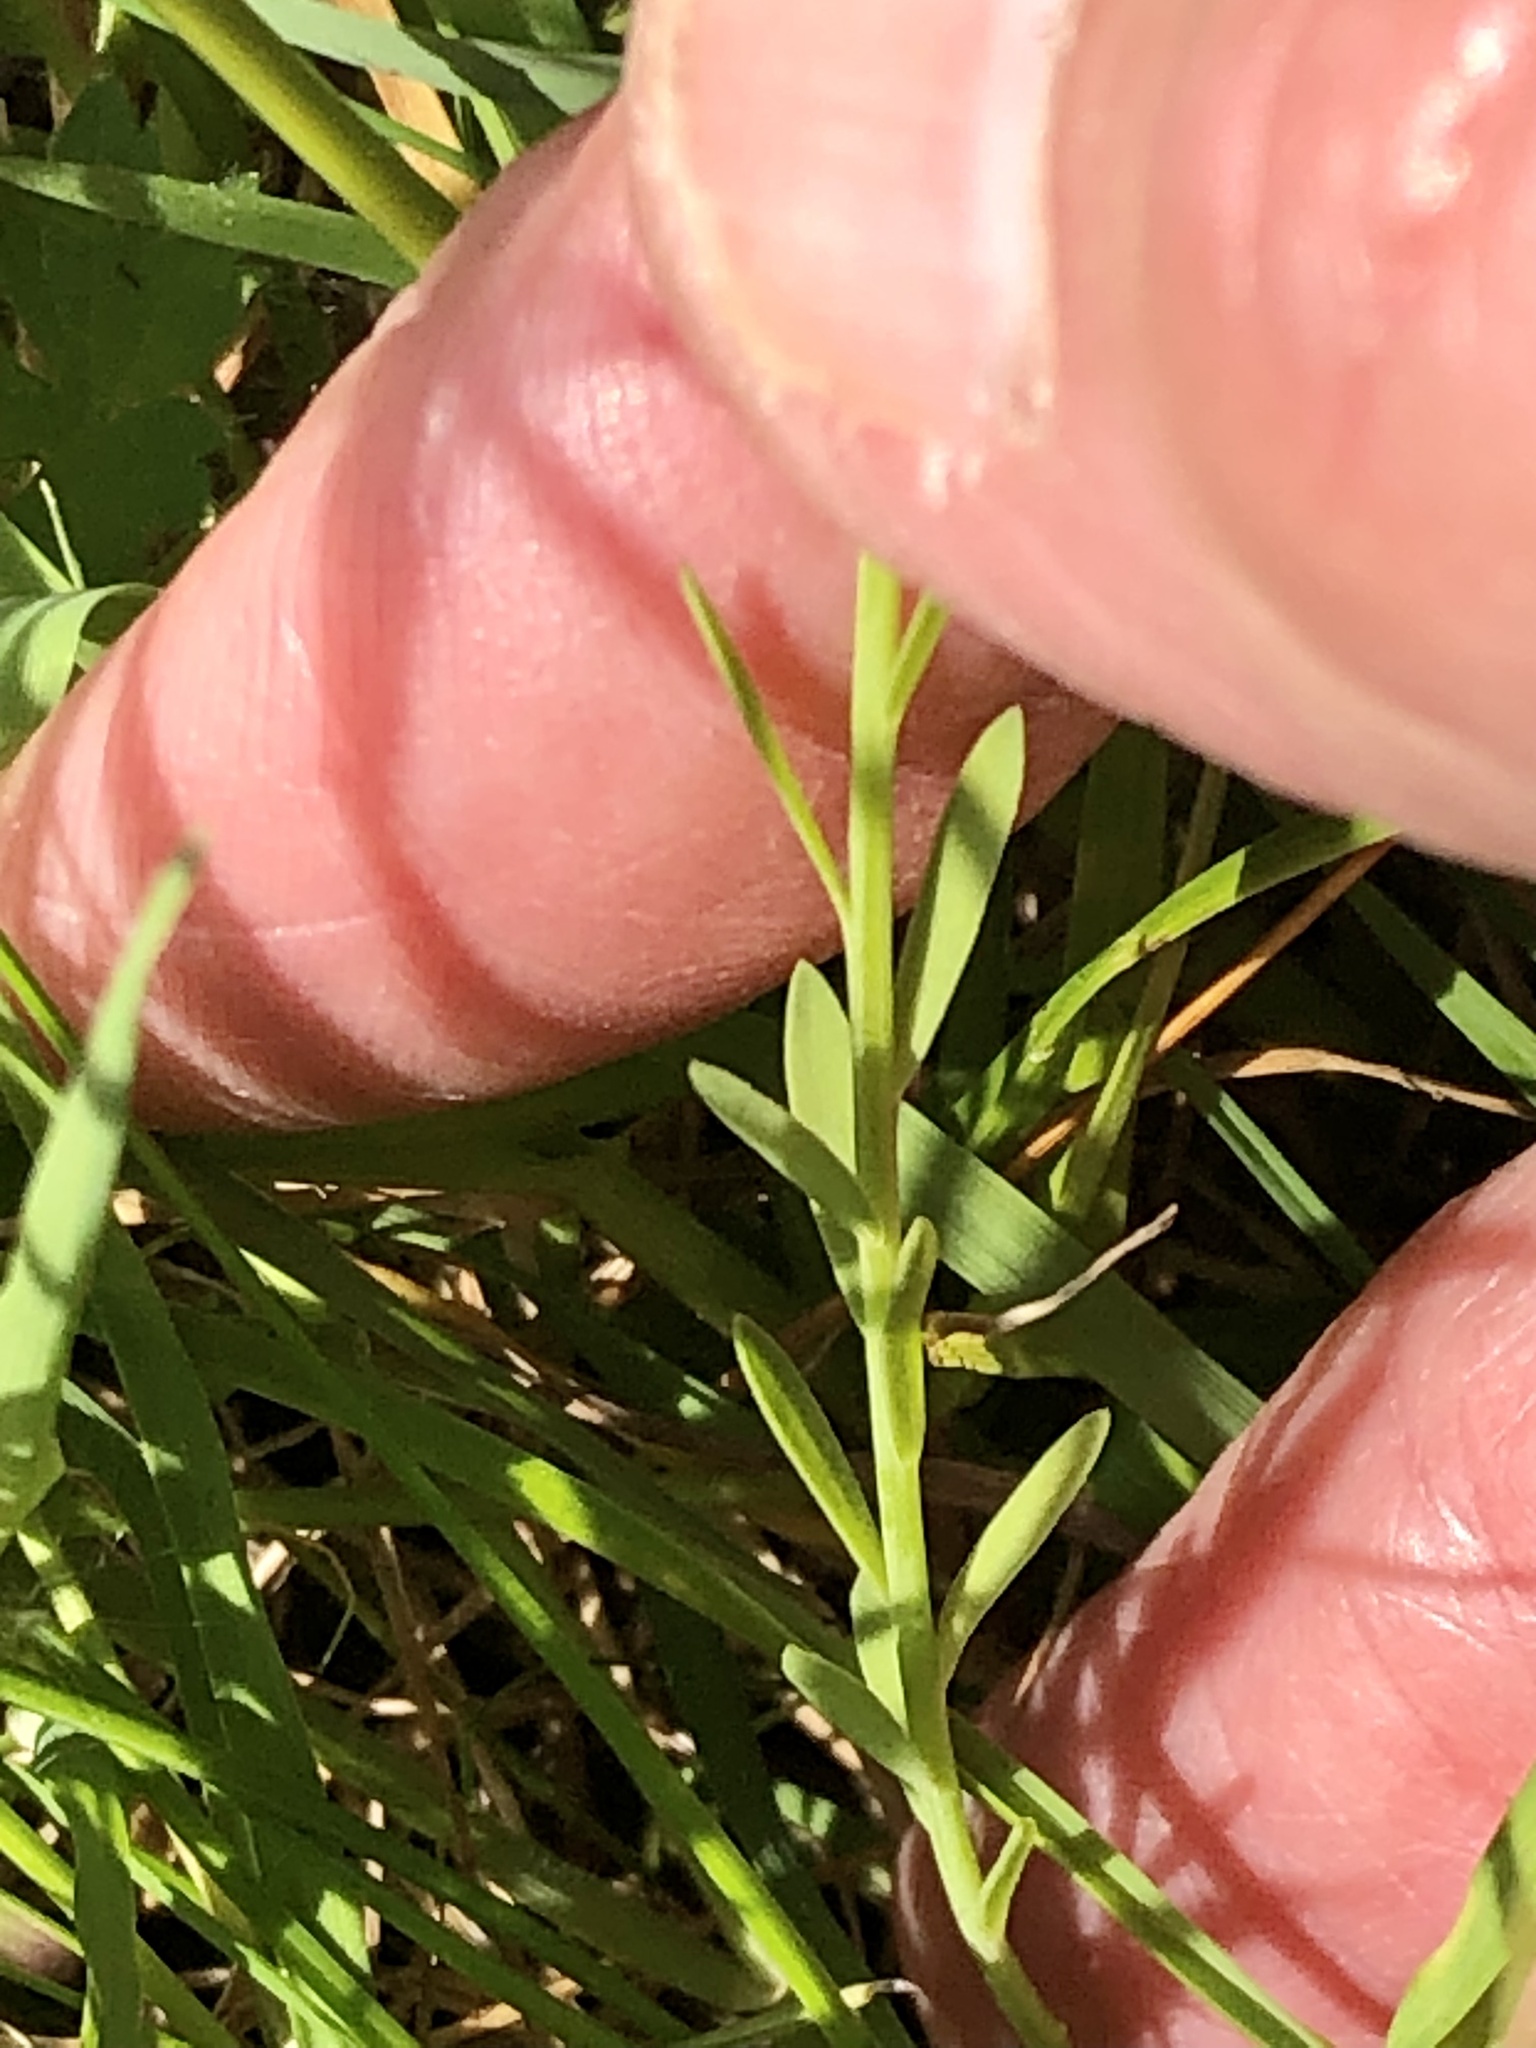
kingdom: Plantae
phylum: Tracheophyta
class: Magnoliopsida
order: Malpighiales
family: Linaceae
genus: Linum
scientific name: Linum usitatissimum
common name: Flax
